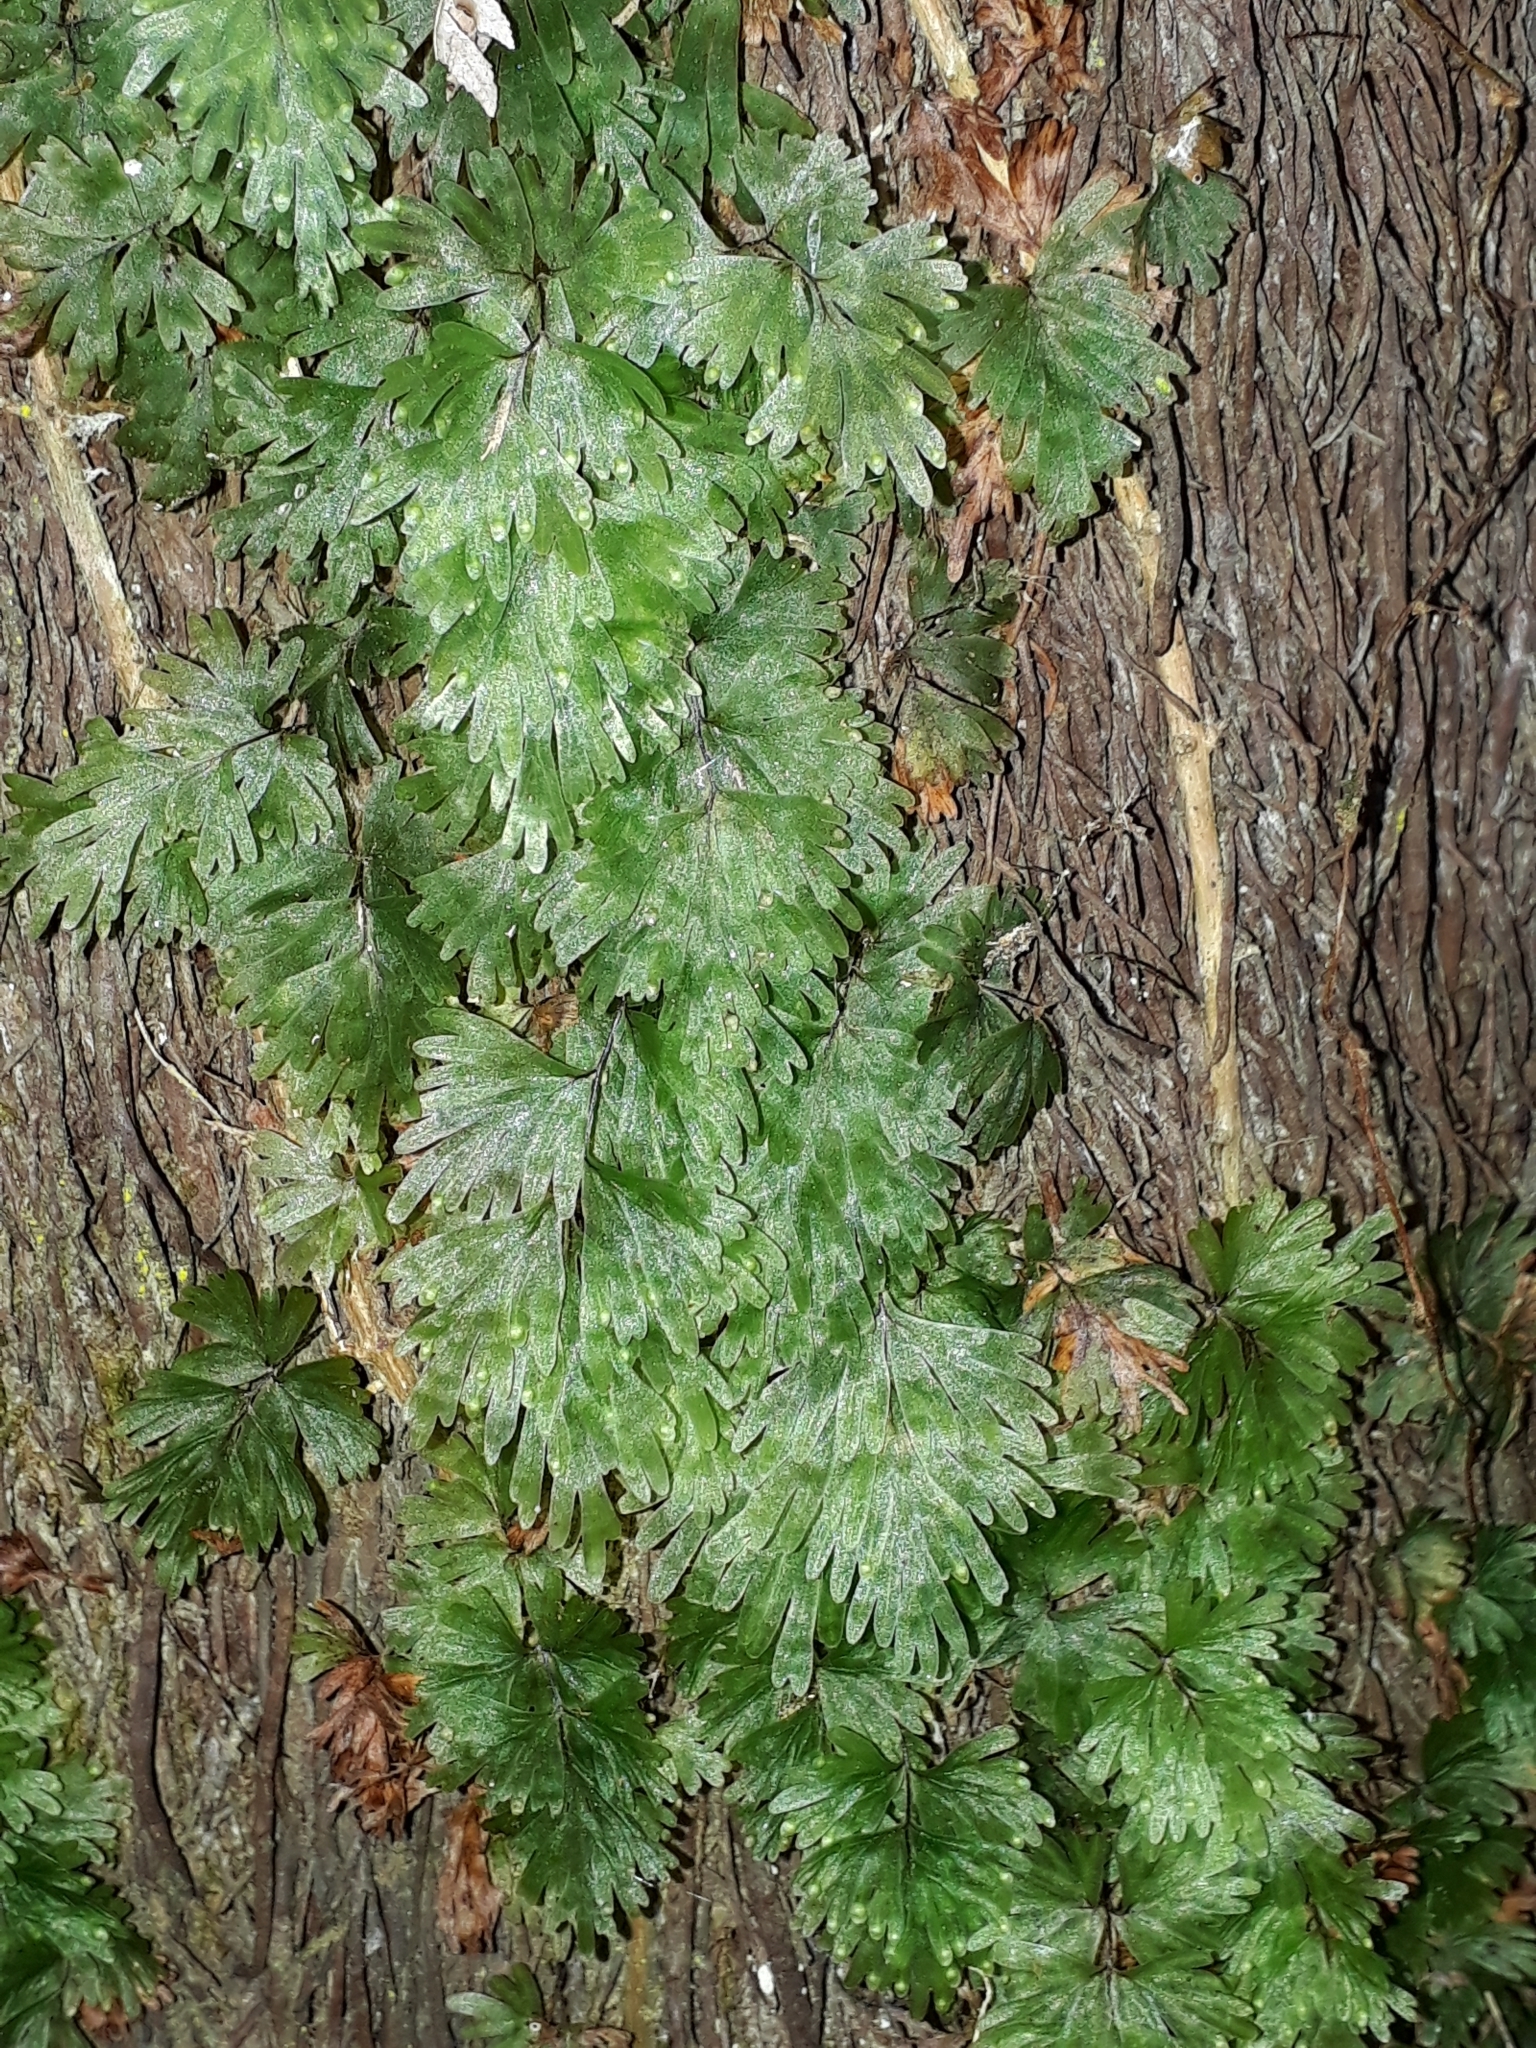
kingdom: Plantae
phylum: Tracheophyta
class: Polypodiopsida
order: Hymenophyllales
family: Hymenophyllaceae
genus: Hymenophyllum
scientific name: Hymenophyllum flabellatum
